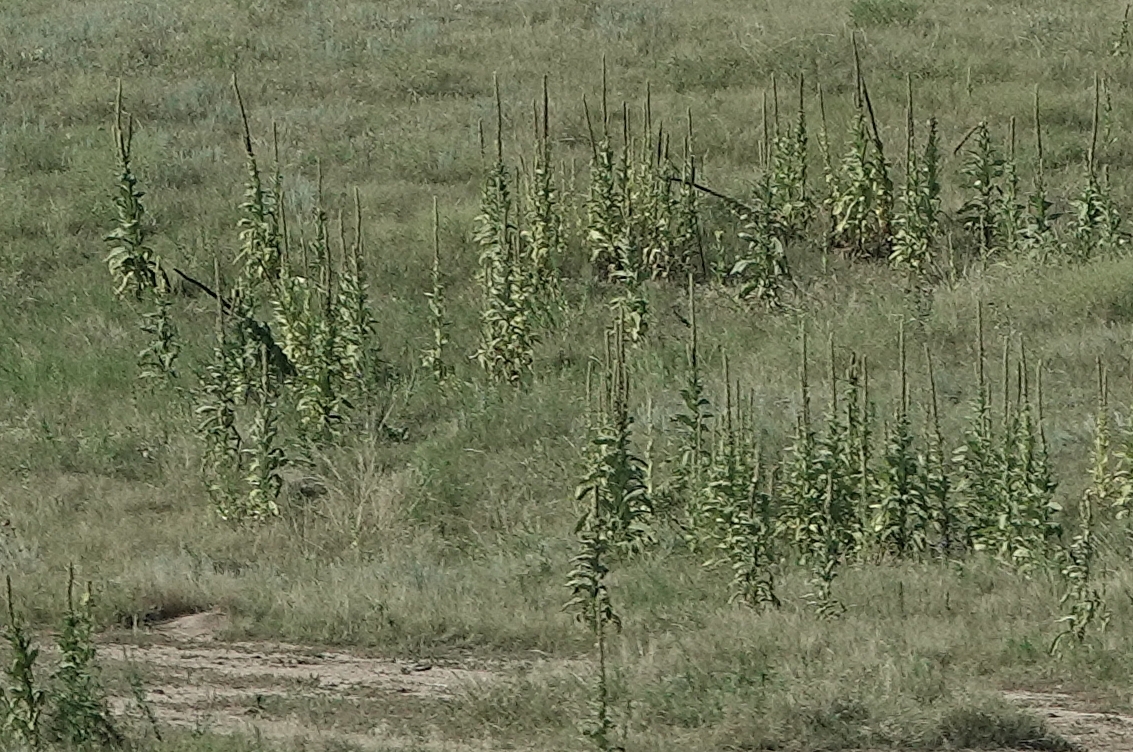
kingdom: Plantae
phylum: Tracheophyta
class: Magnoliopsida
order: Lamiales
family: Scrophulariaceae
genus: Verbascum
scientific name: Verbascum thapsus
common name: Common mullein
